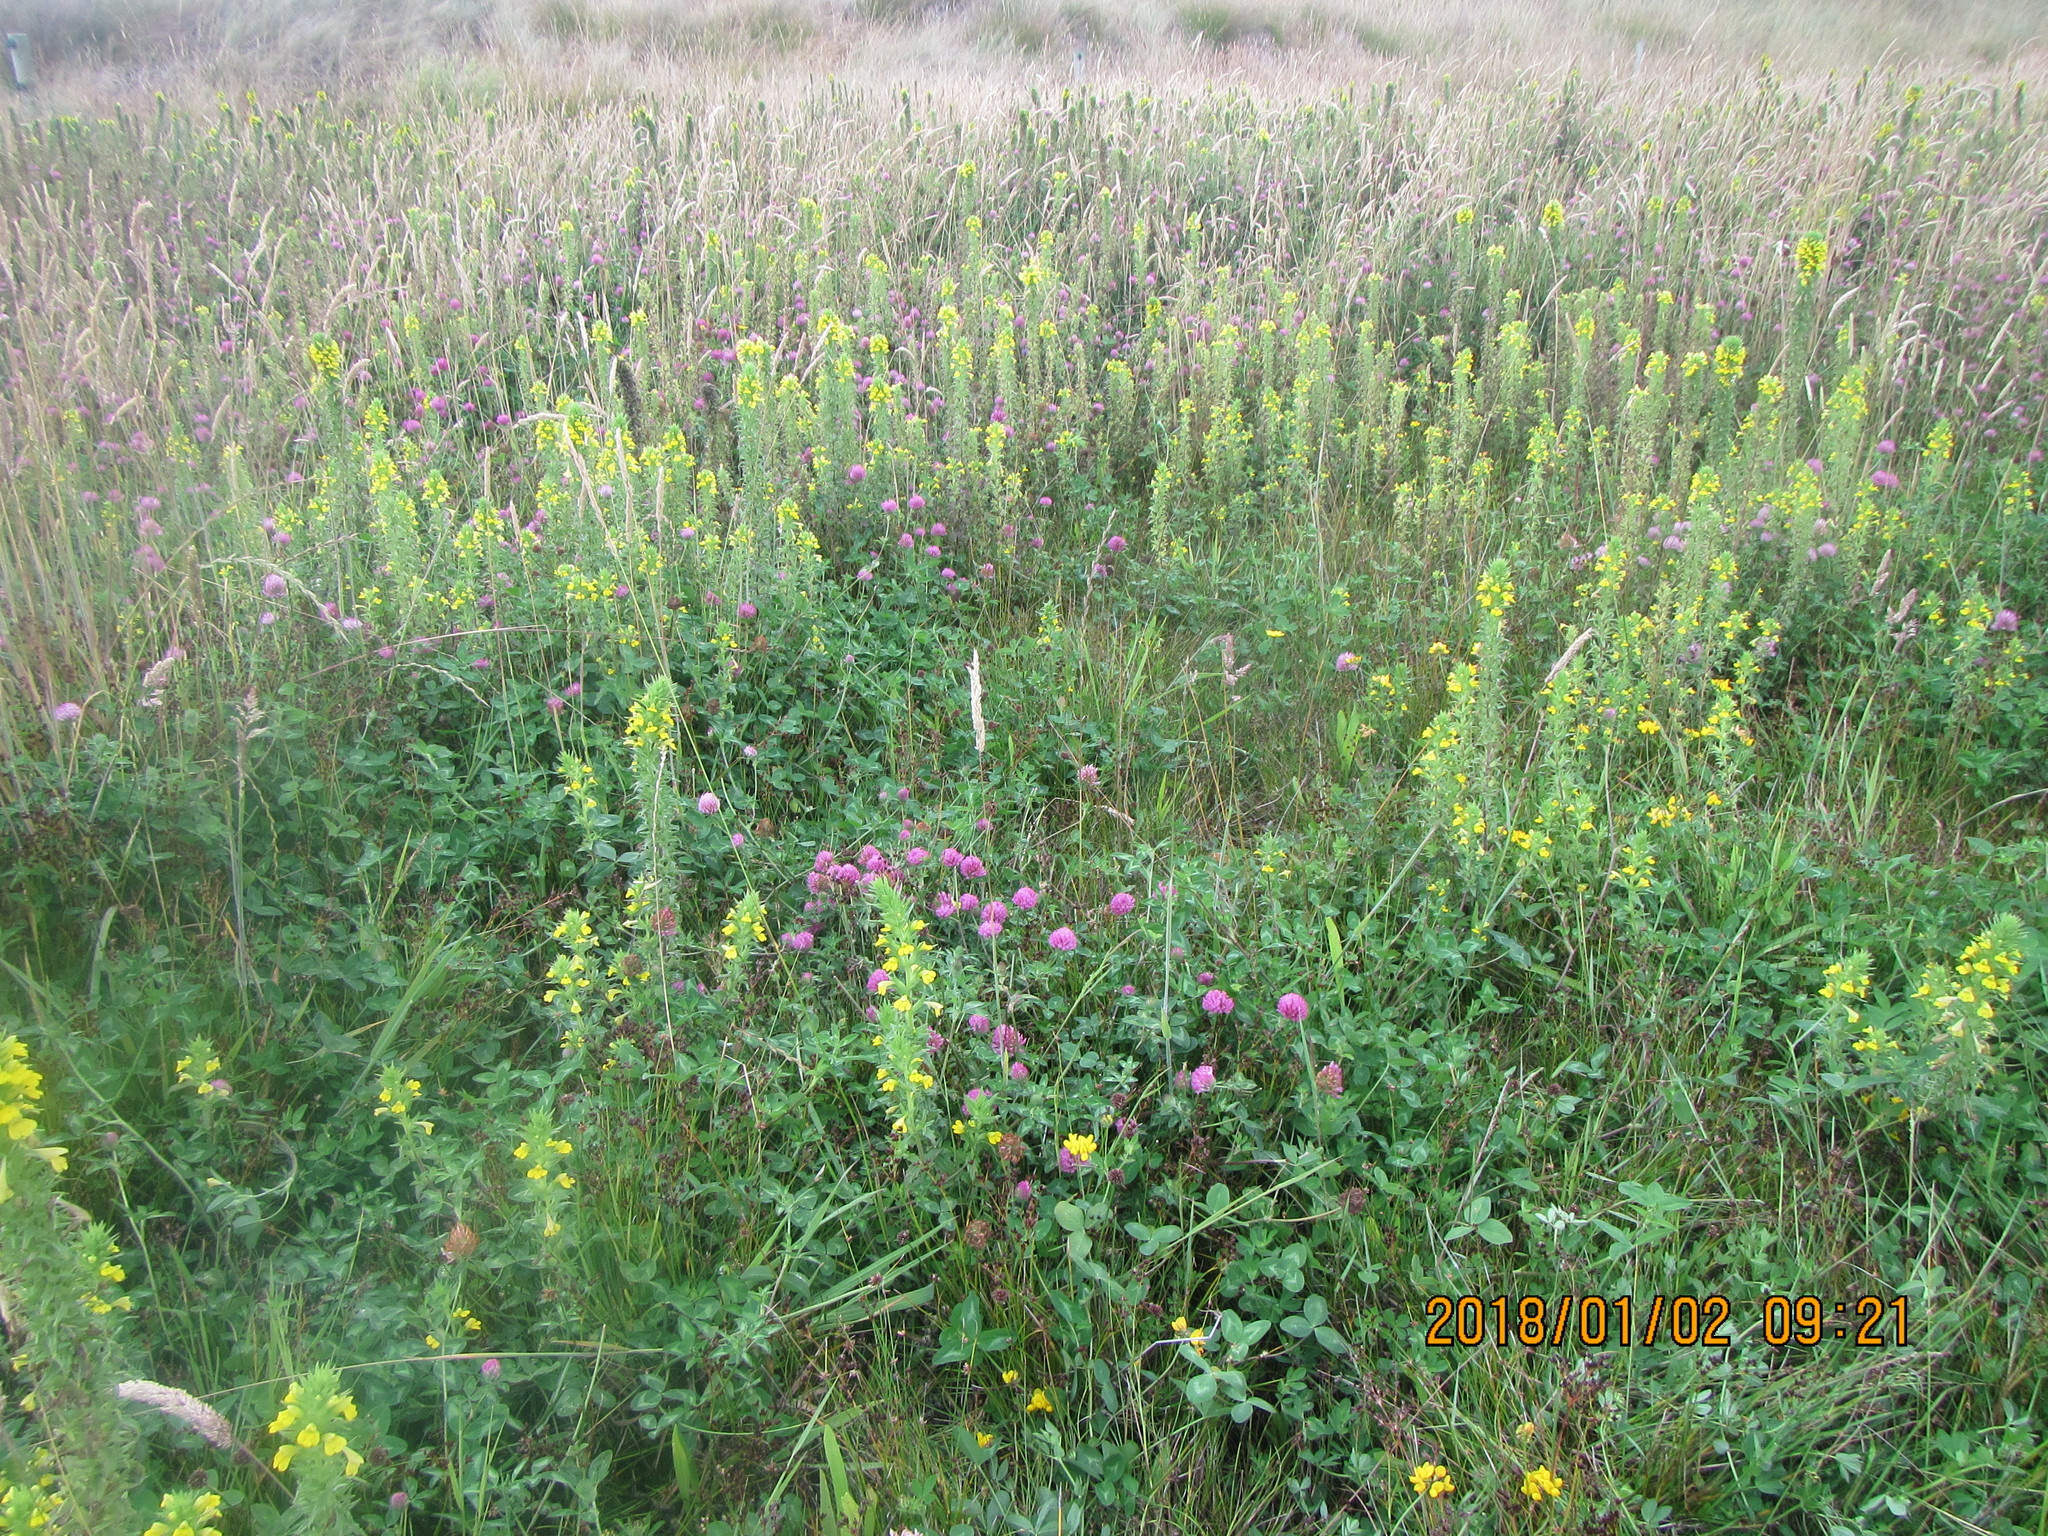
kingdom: Plantae
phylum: Tracheophyta
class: Magnoliopsida
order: Lamiales
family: Orobanchaceae
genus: Bellardia
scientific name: Bellardia viscosa
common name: Sticky parentucellia
